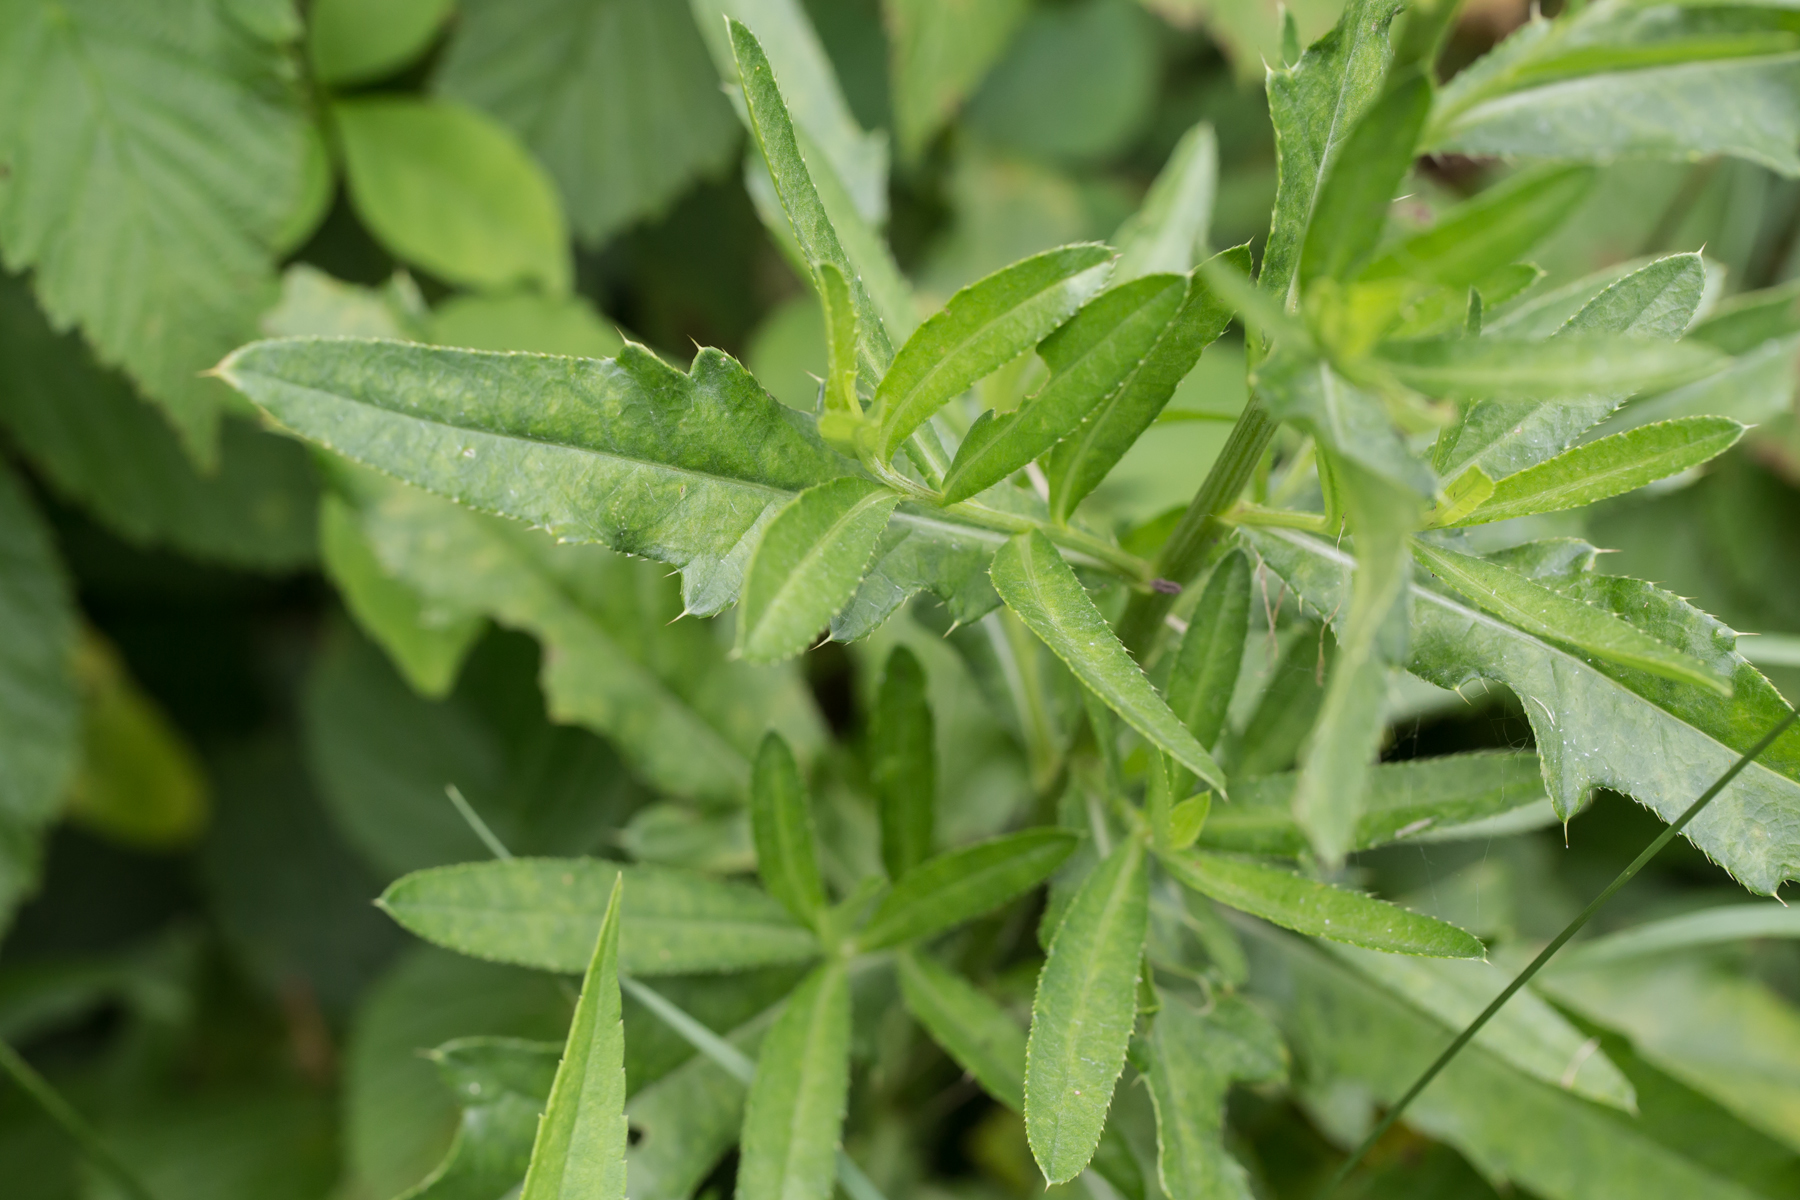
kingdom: Plantae
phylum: Tracheophyta
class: Magnoliopsida
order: Asterales
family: Asteraceae
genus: Cirsium
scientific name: Cirsium arvense
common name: Creeping thistle
